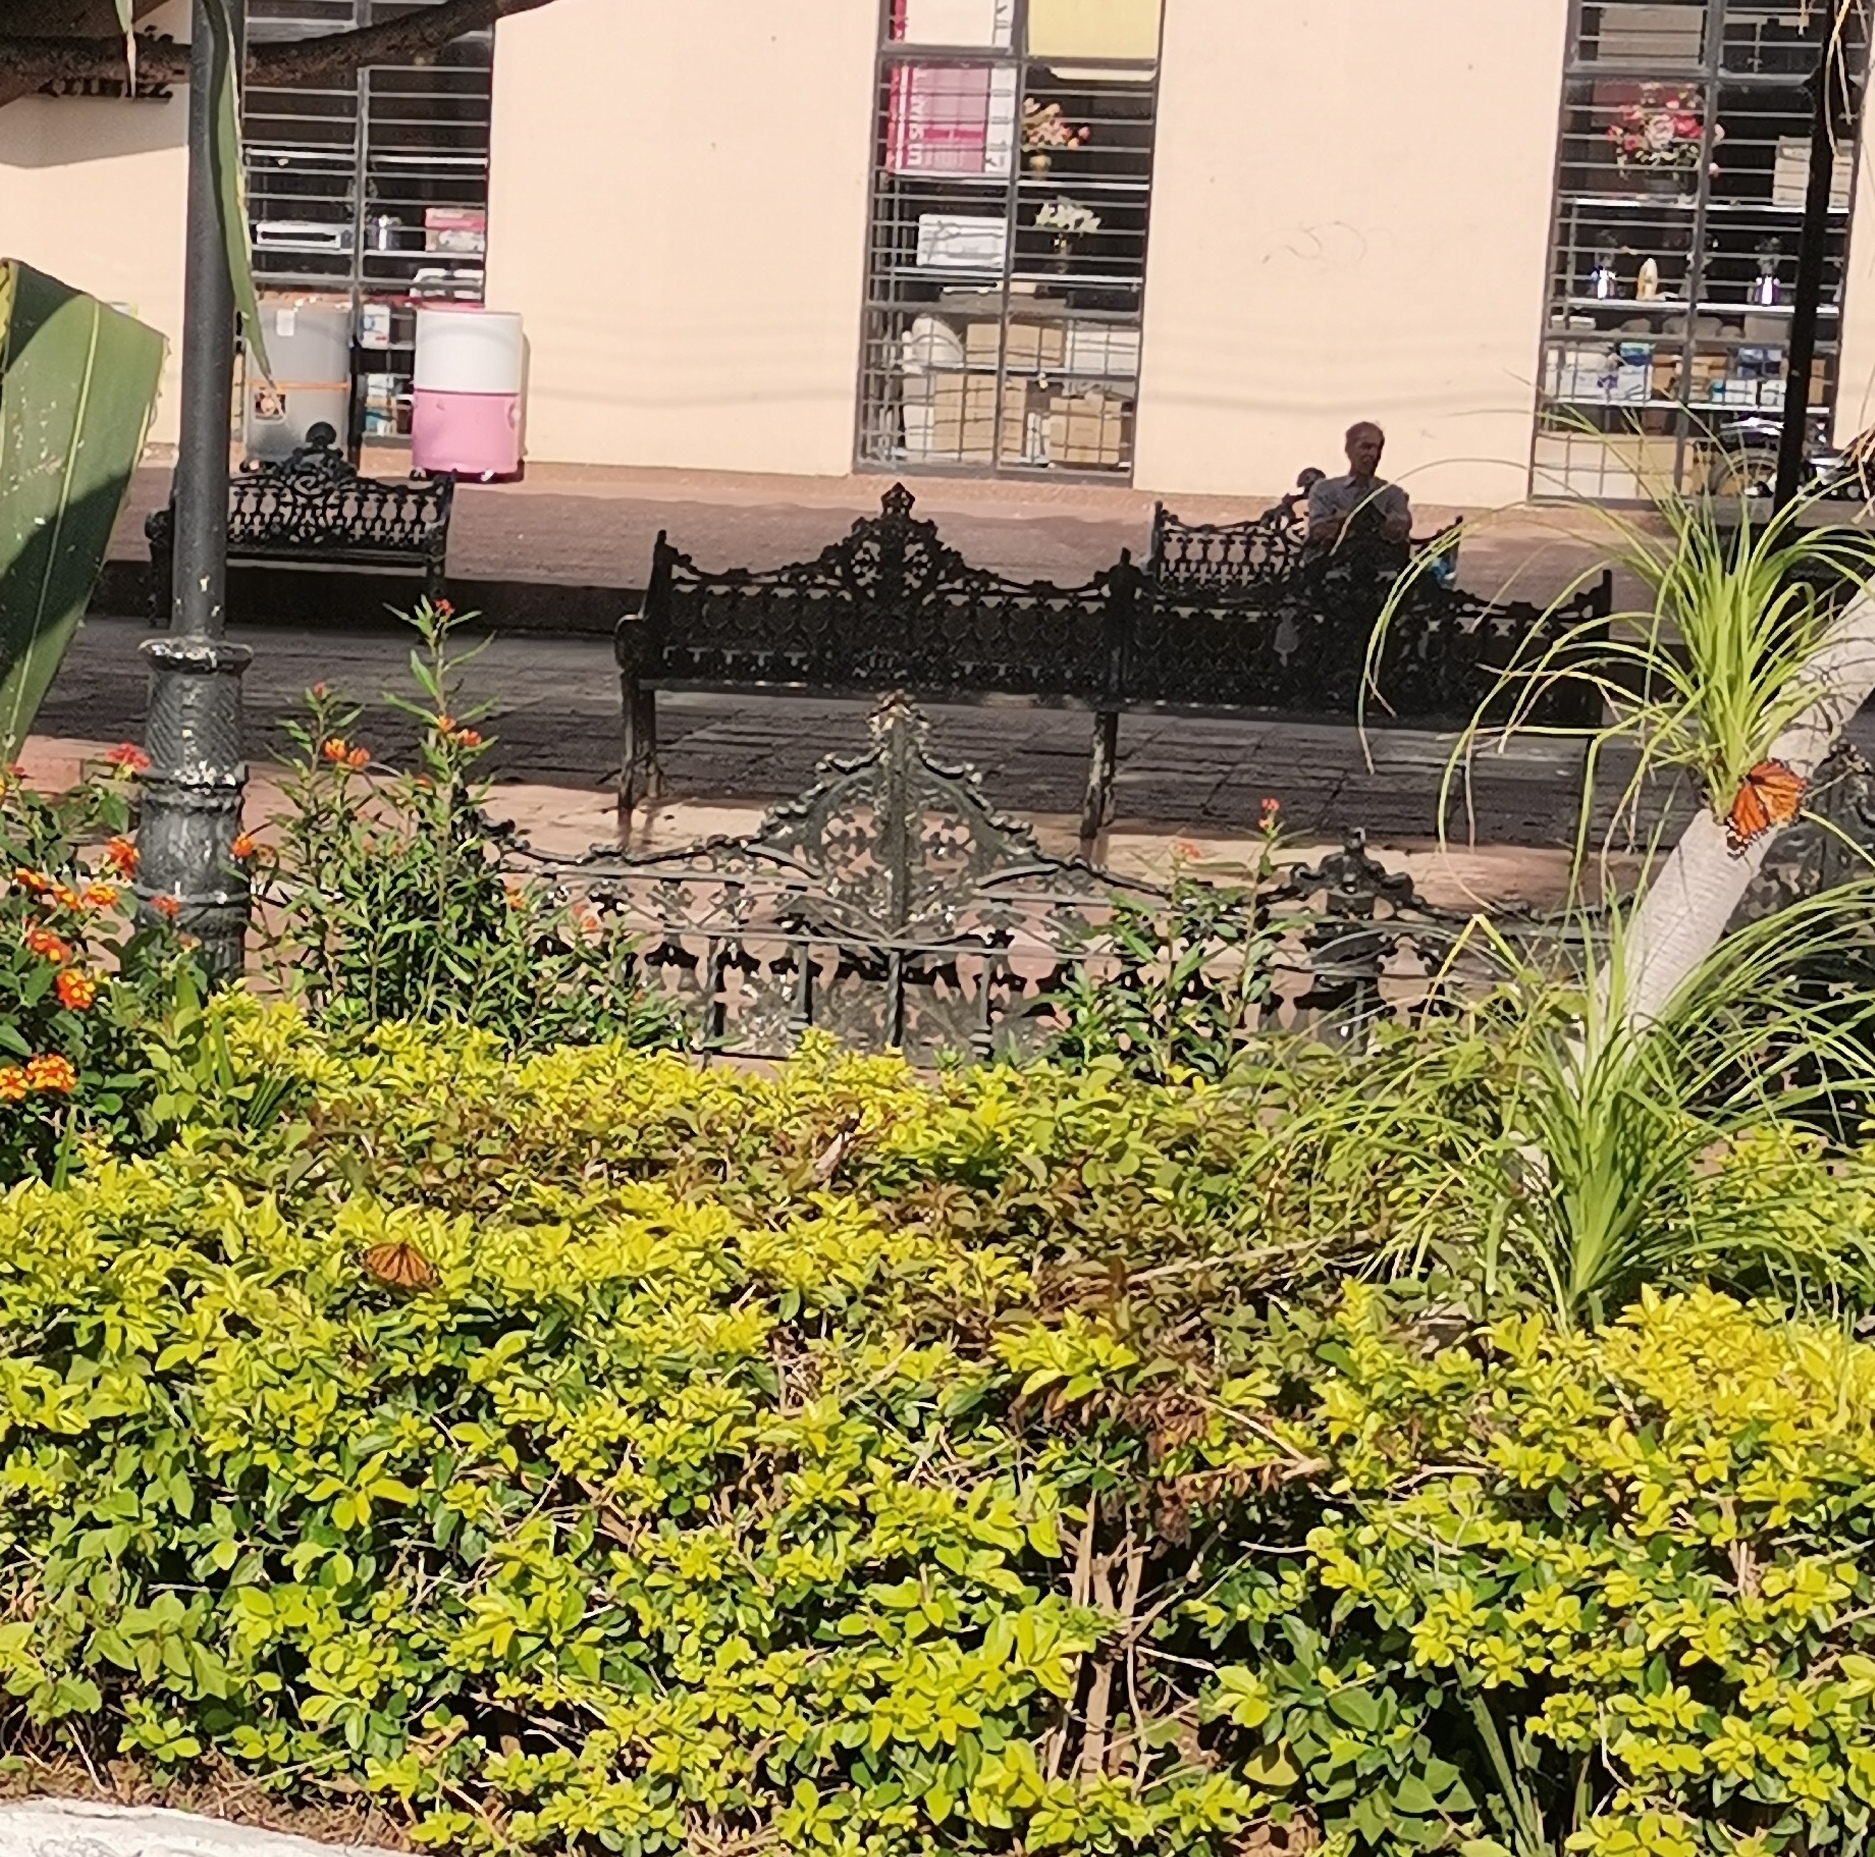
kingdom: Animalia
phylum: Arthropoda
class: Insecta
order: Lepidoptera
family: Nymphalidae
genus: Danaus
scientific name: Danaus plexippus
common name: Monarch
